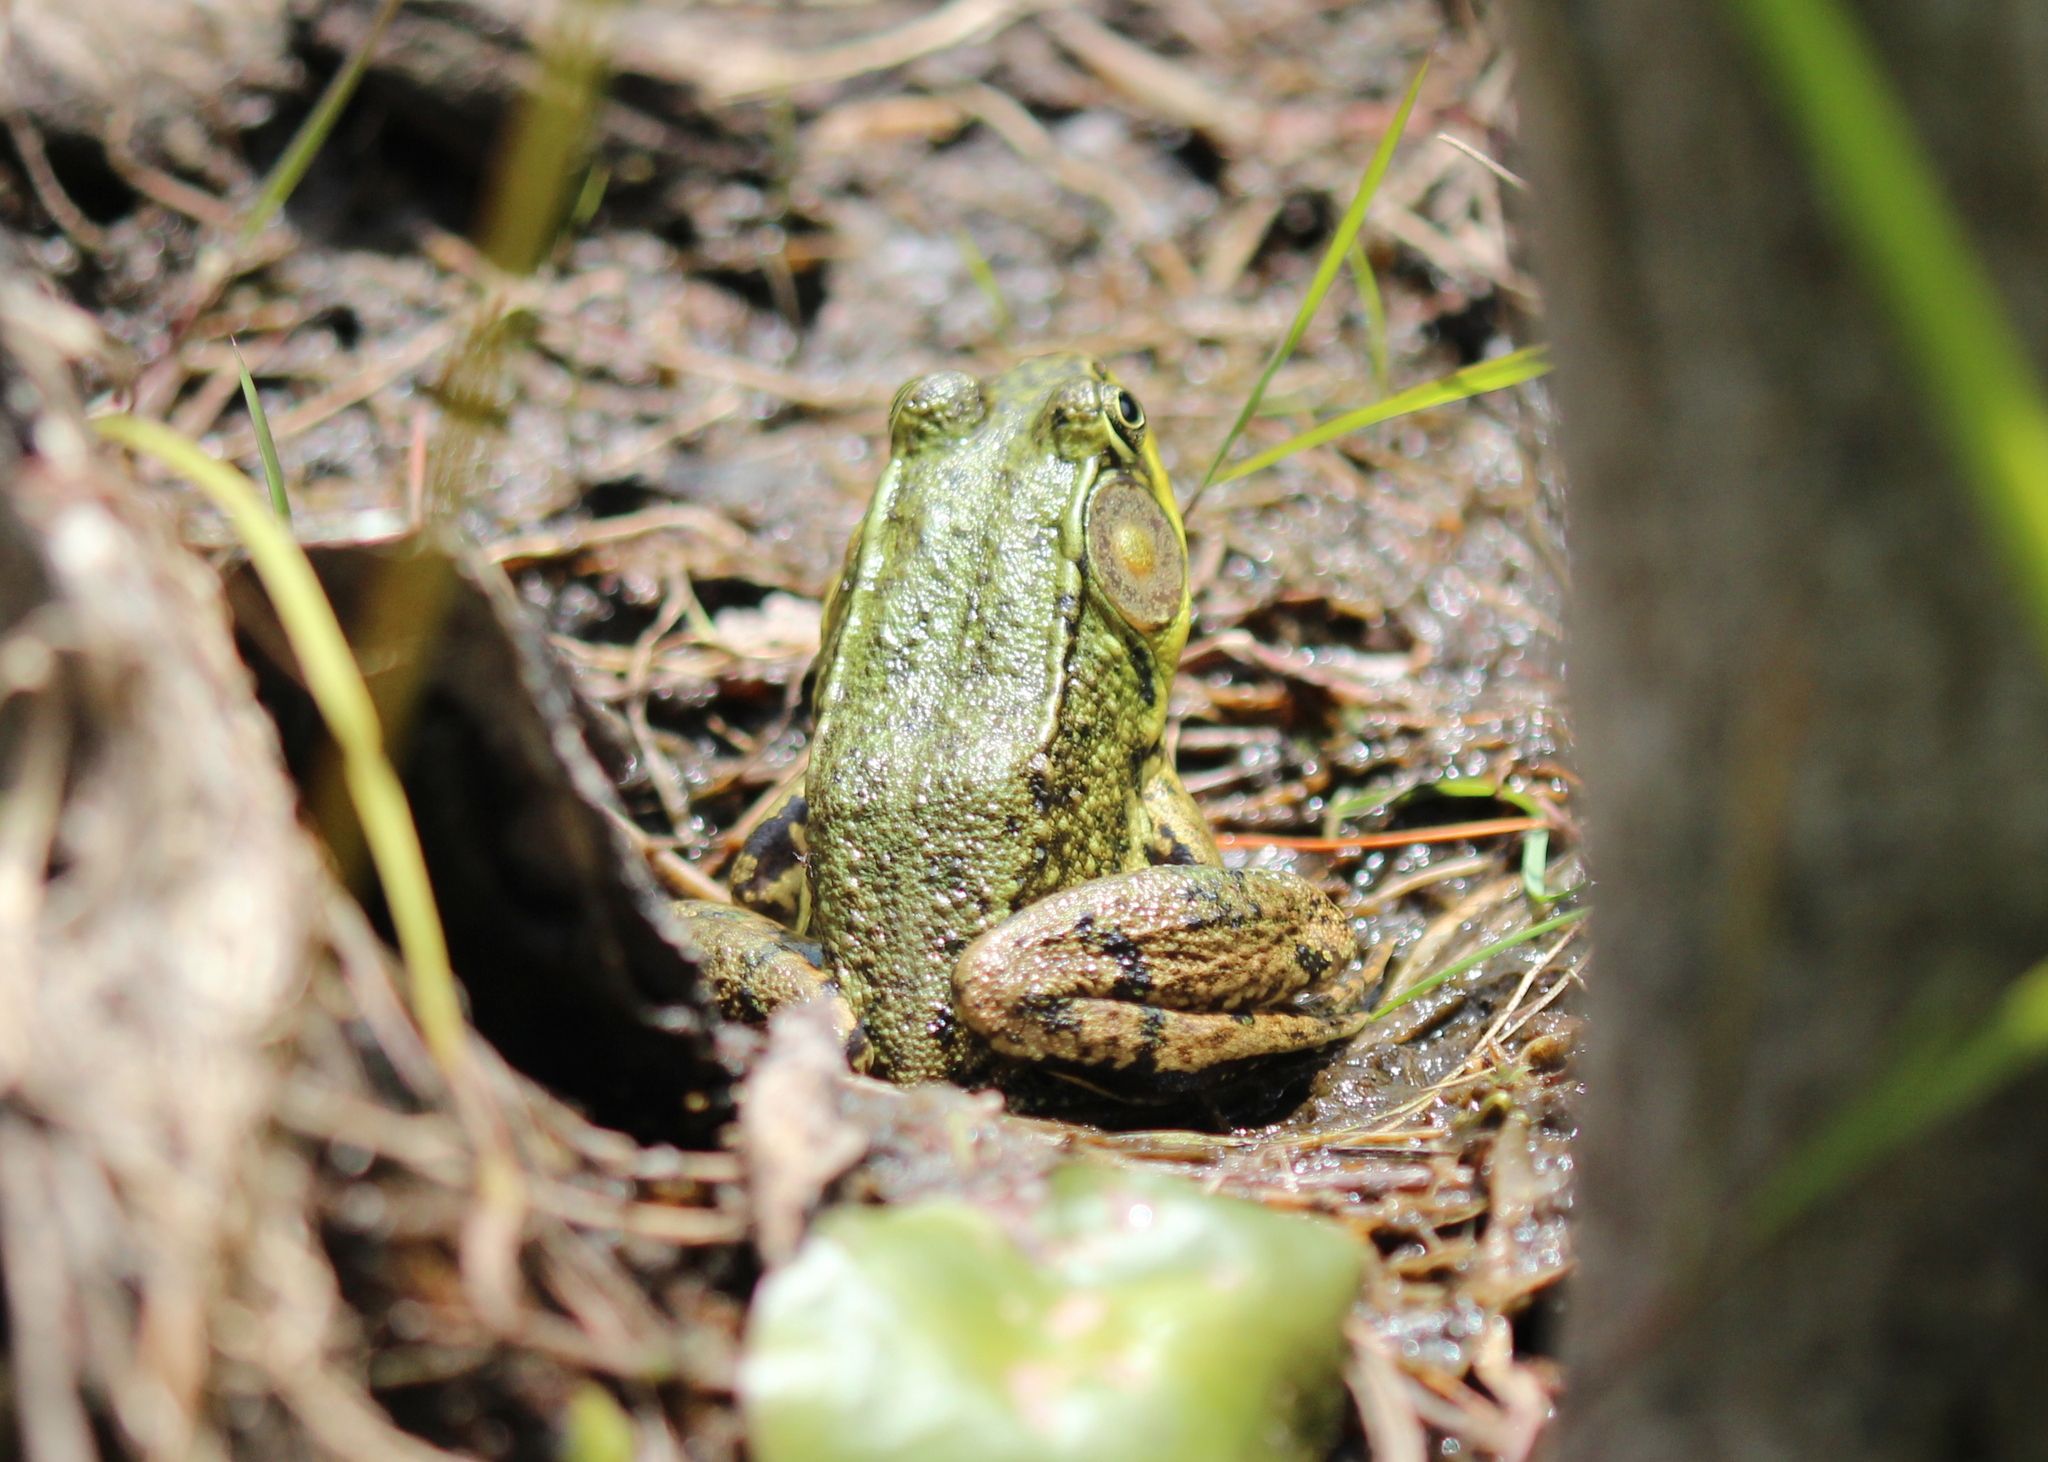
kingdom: Animalia
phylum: Chordata
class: Amphibia
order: Anura
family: Ranidae
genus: Lithobates
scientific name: Lithobates clamitans
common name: Green frog
